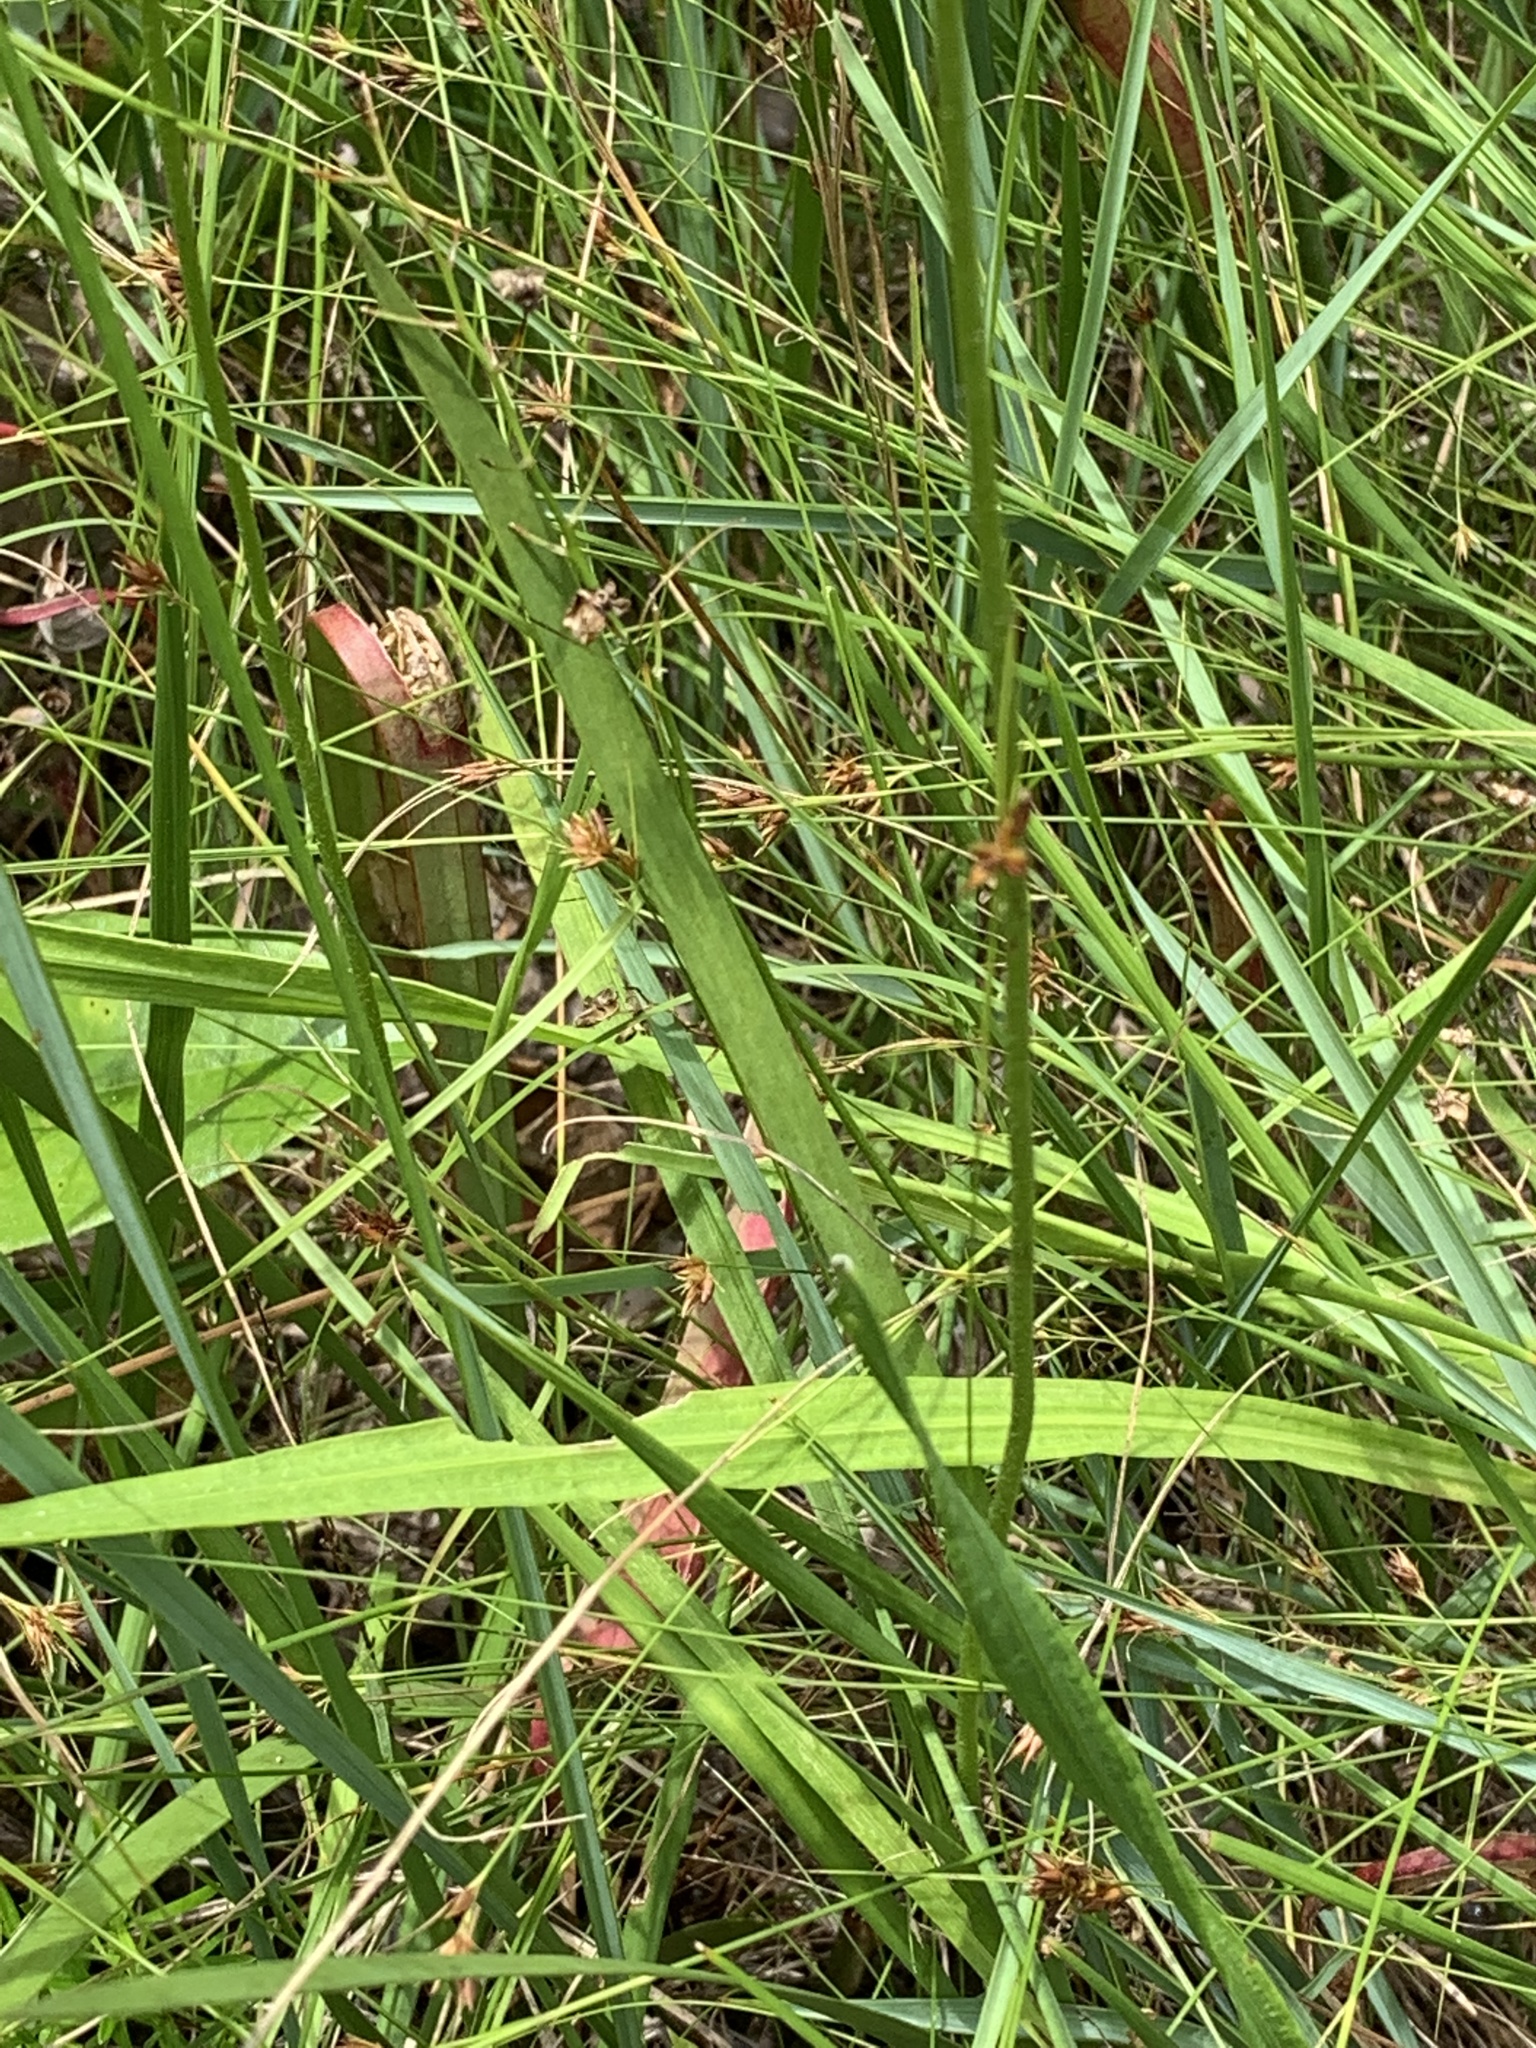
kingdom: Plantae
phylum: Tracheophyta
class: Liliopsida
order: Alismatales
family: Tofieldiaceae
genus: Triantha
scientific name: Triantha racemosa
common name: Coastal false asphodel
